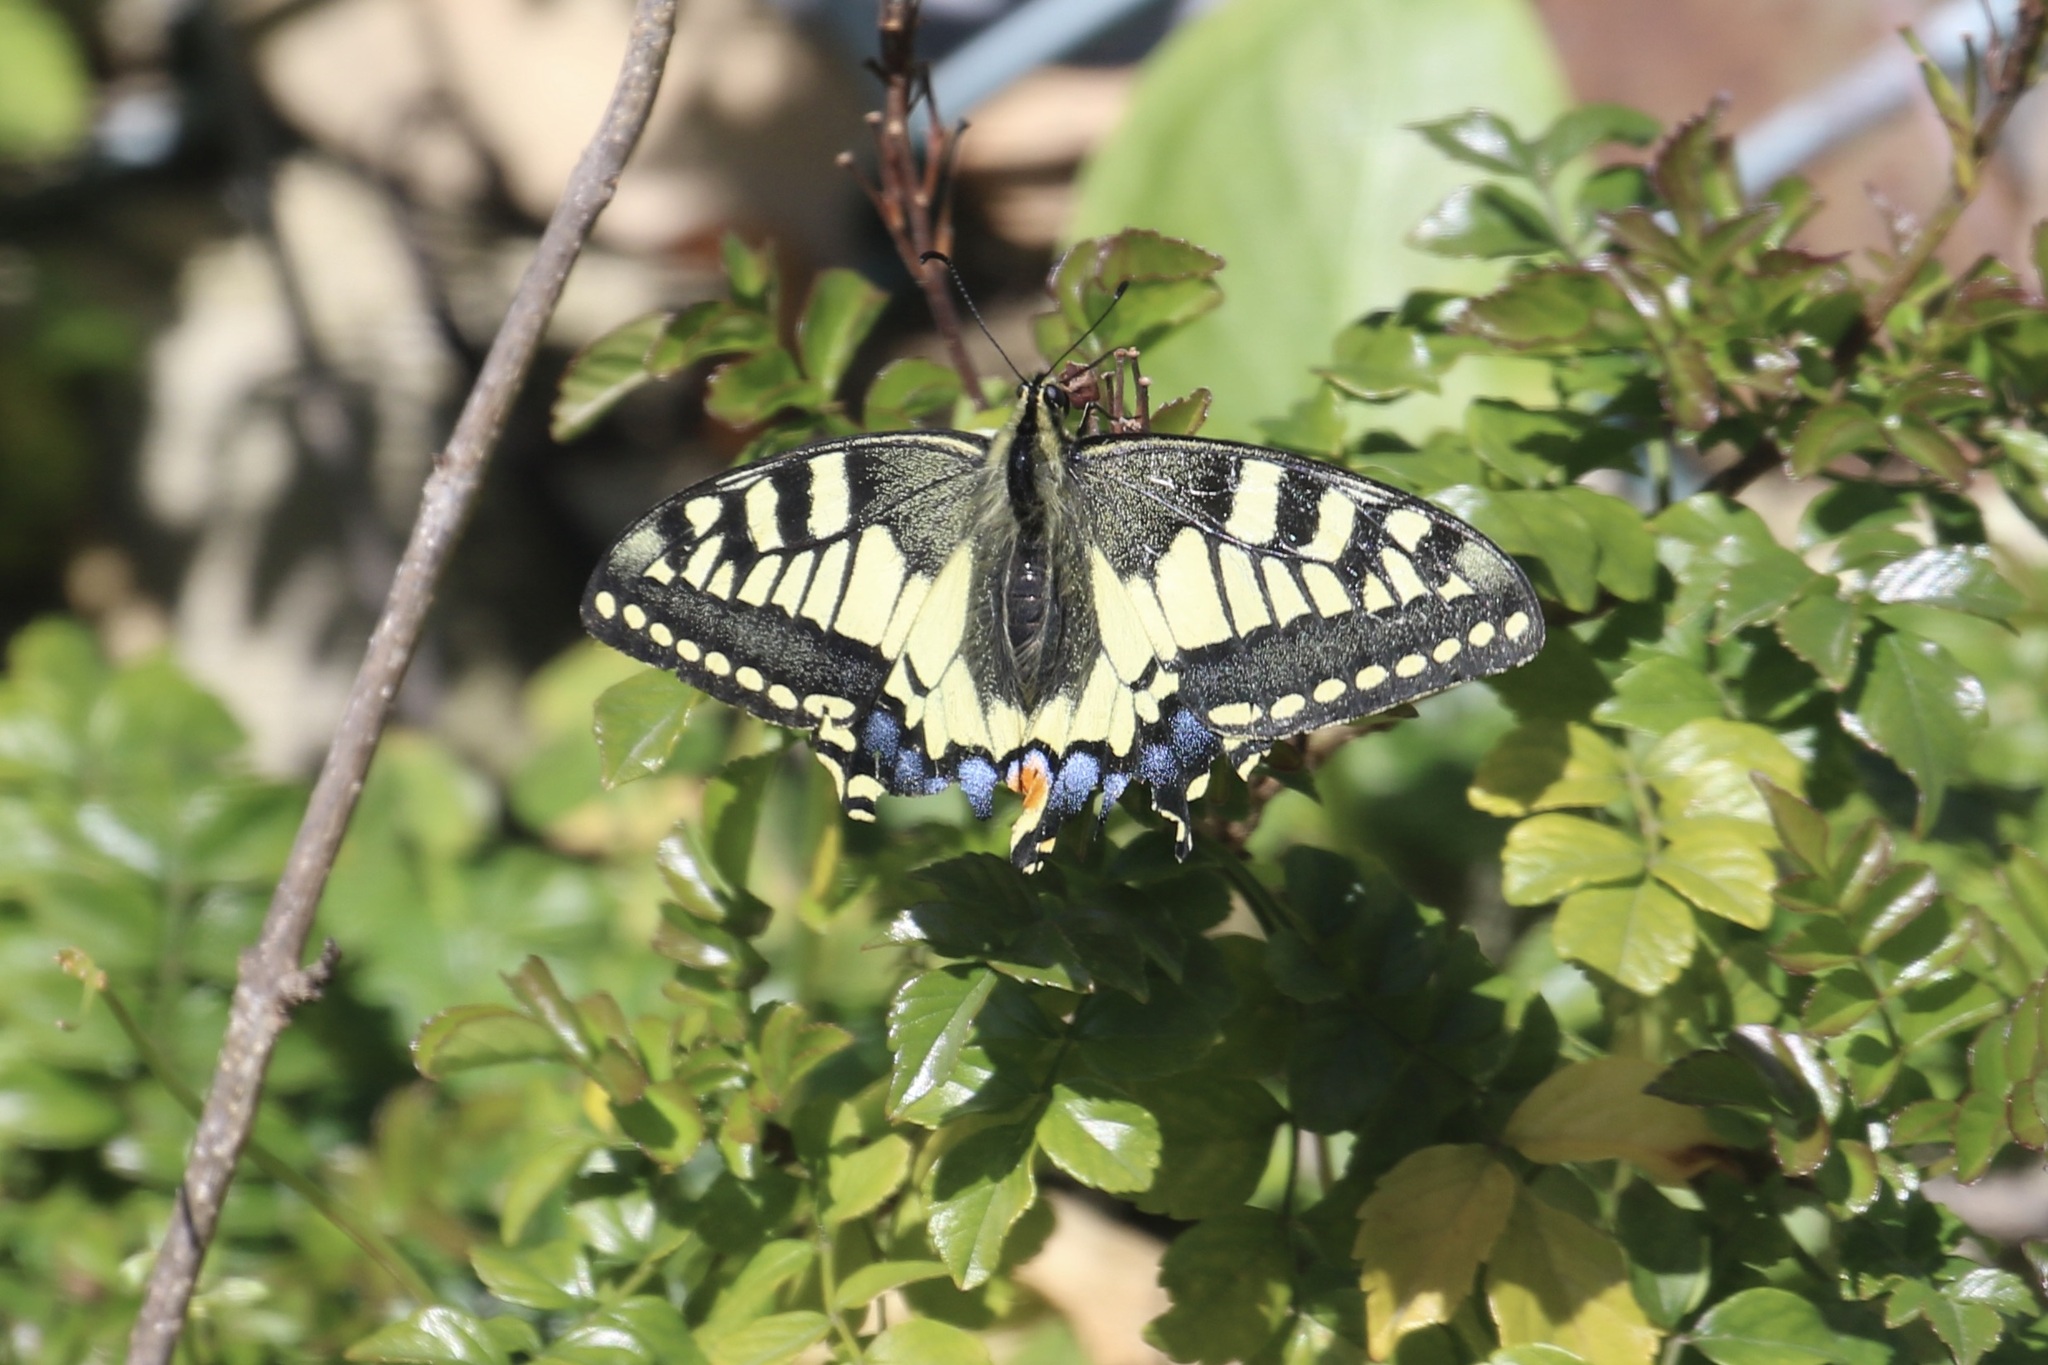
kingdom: Animalia
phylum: Arthropoda
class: Insecta
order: Lepidoptera
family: Papilionidae
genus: Papilio
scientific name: Papilio machaon
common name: Swallowtail
